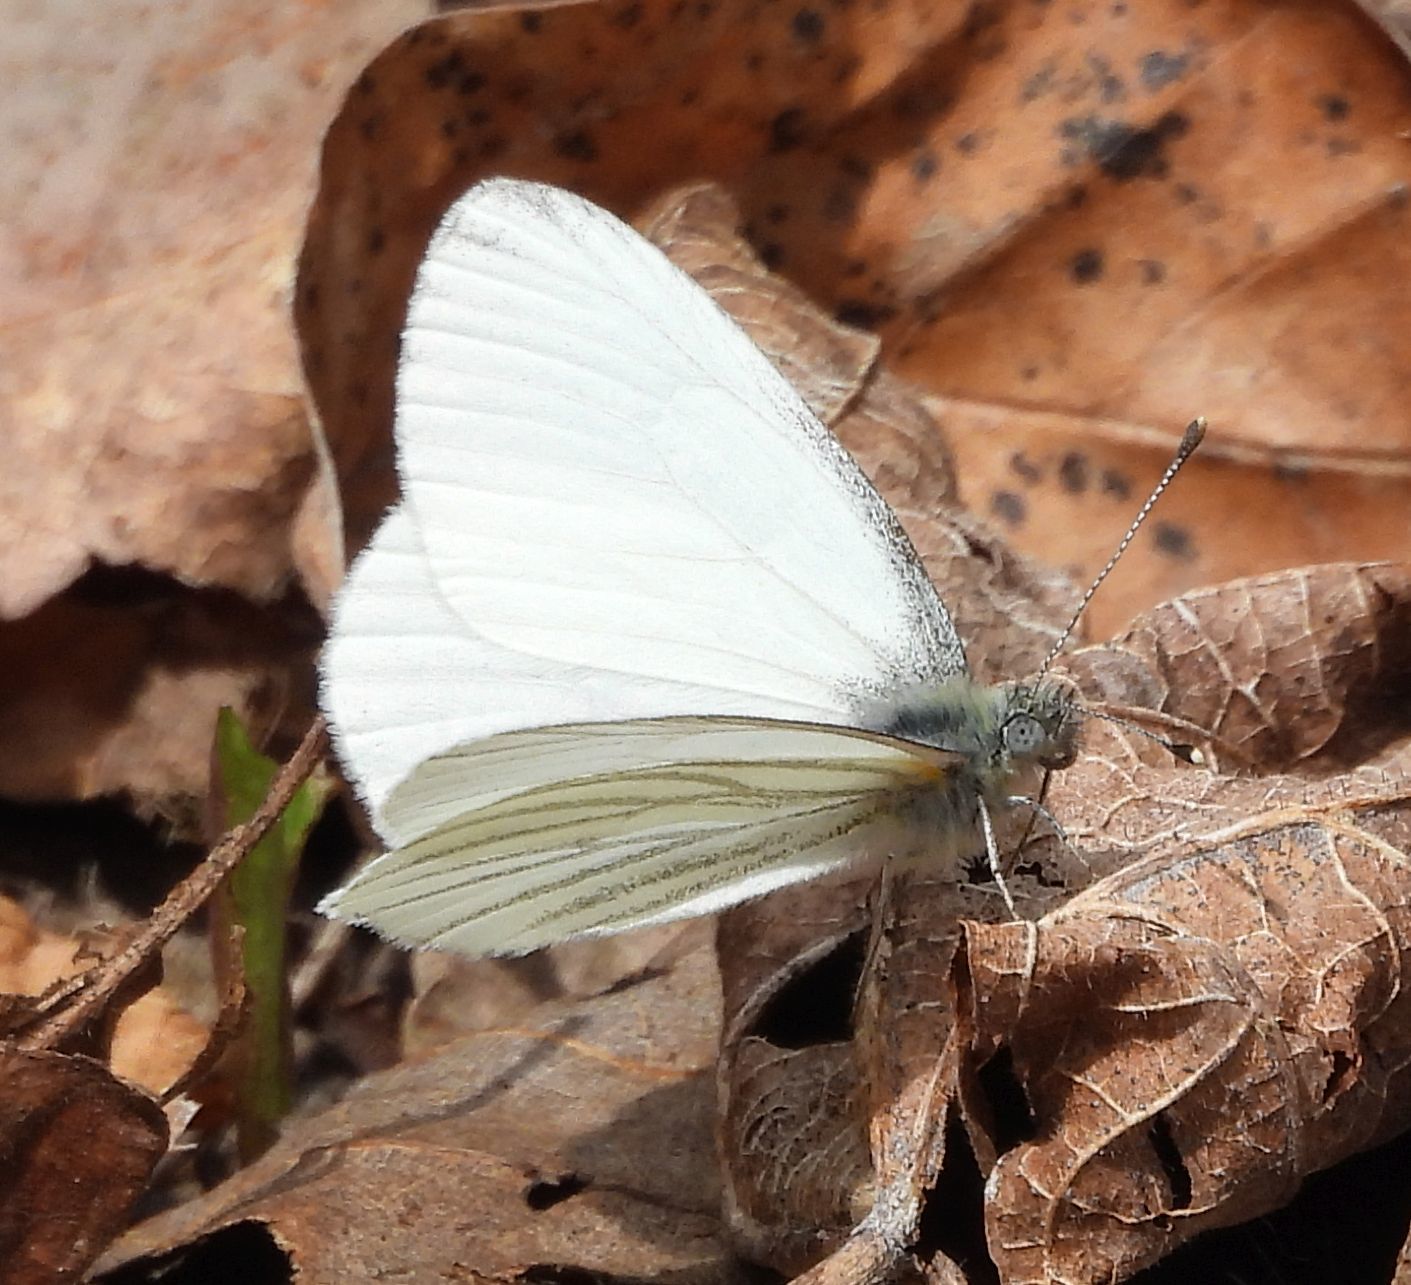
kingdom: Animalia
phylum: Arthropoda
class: Insecta
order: Lepidoptera
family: Pieridae
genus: Pieris
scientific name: Pieris oleracea
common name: Mustard white
